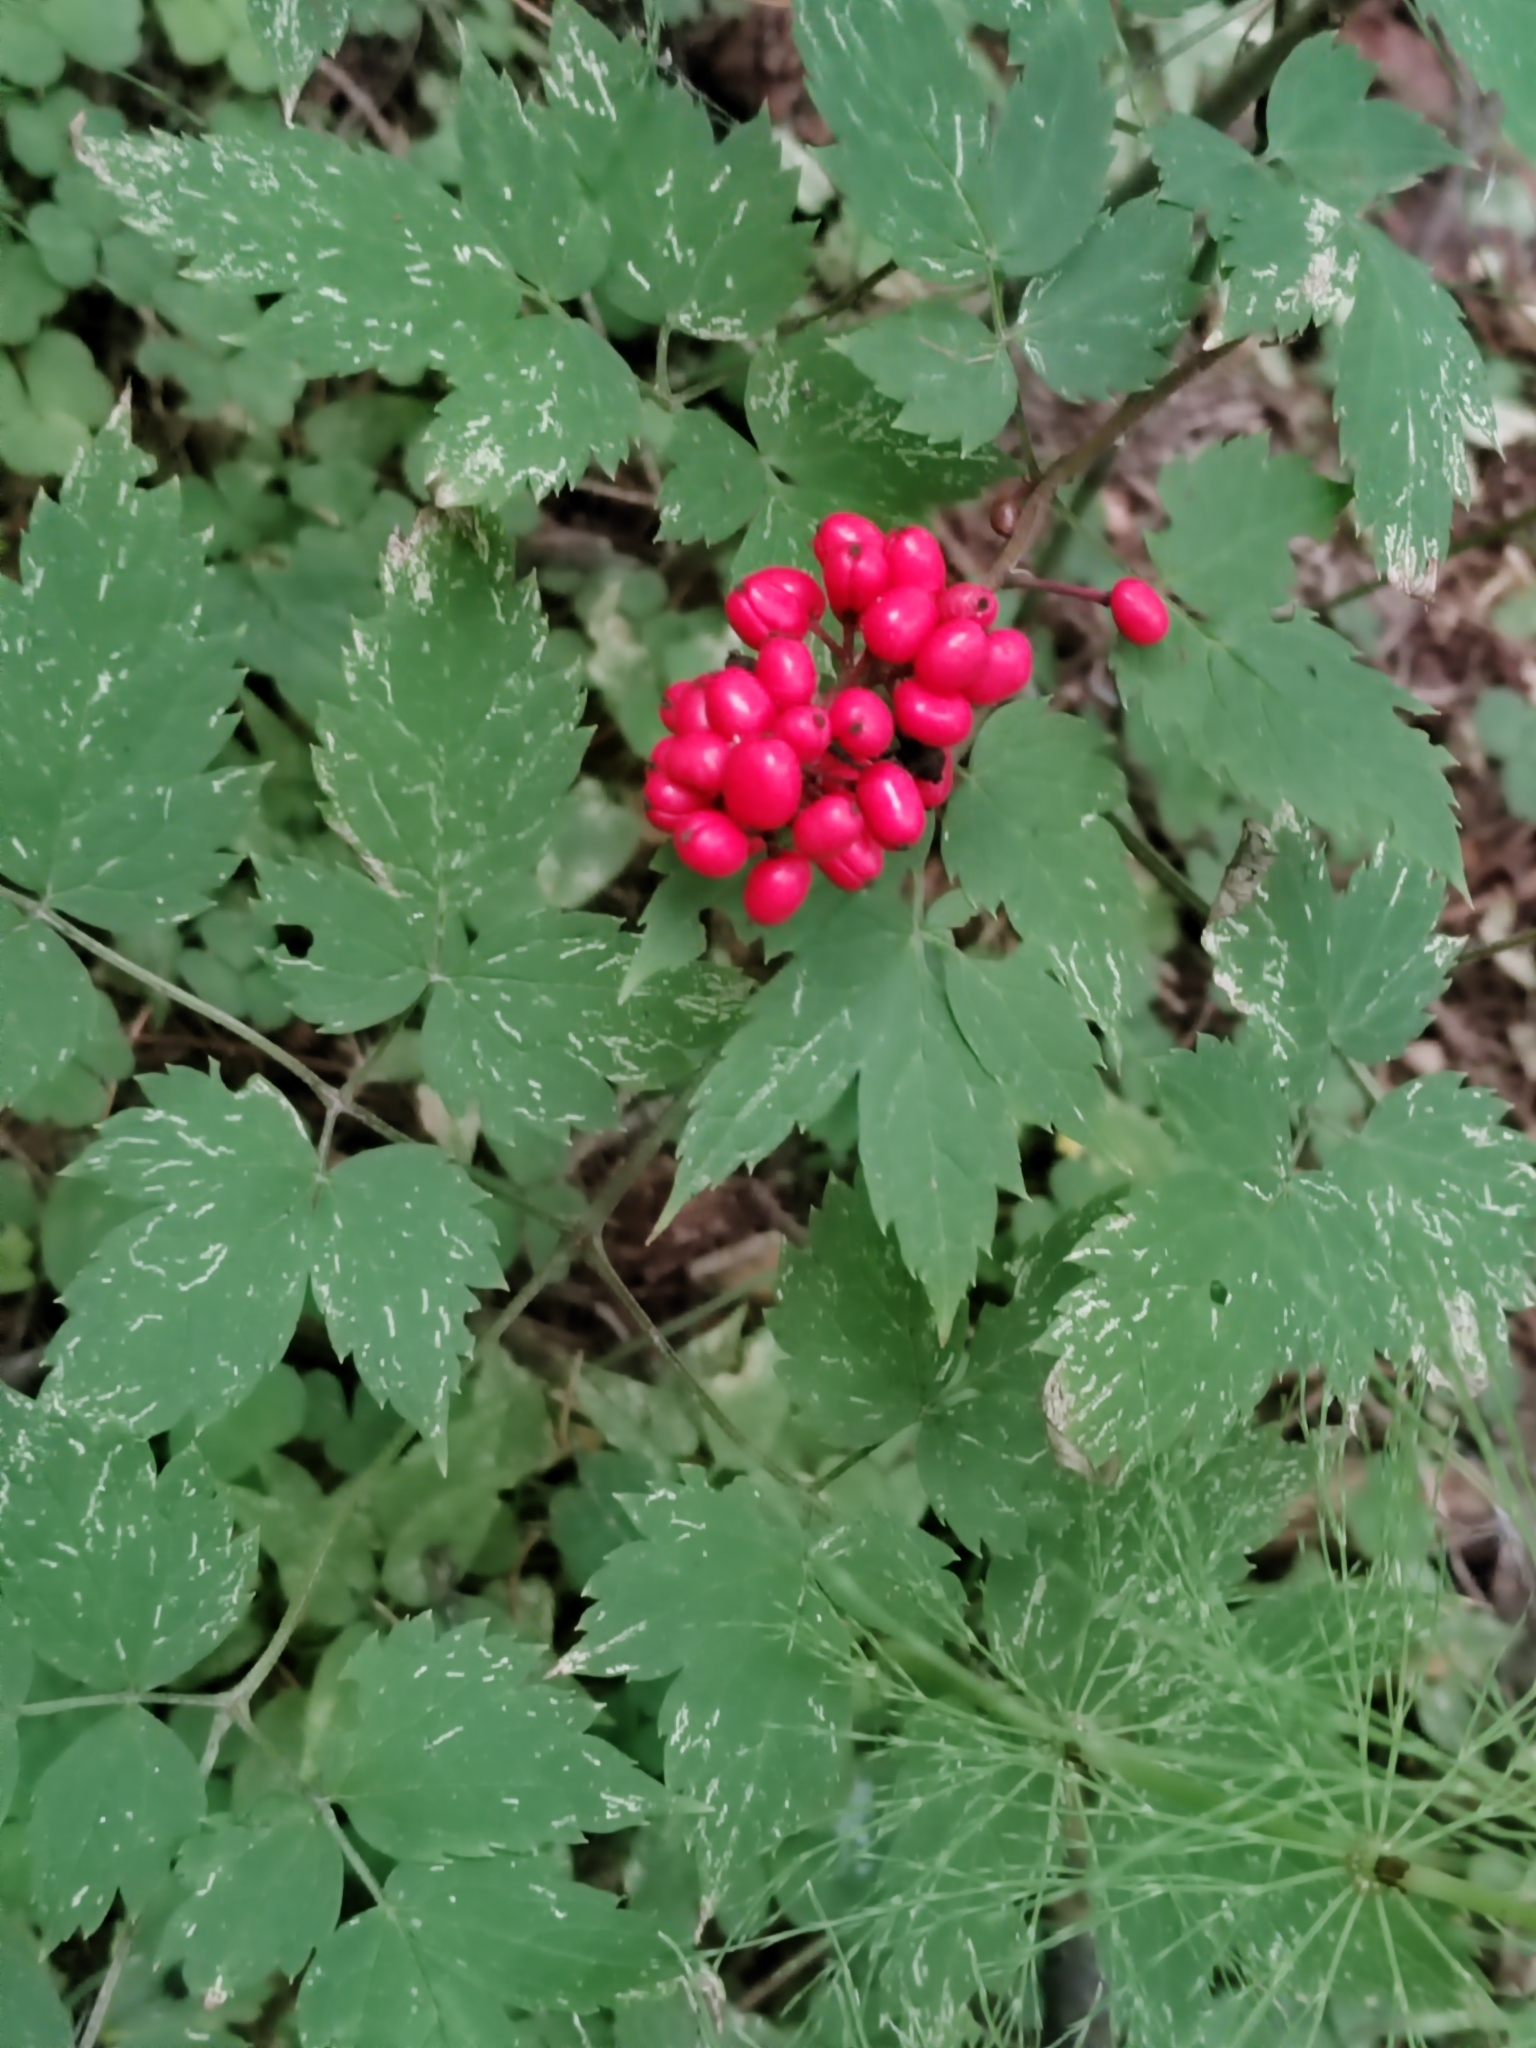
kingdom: Plantae
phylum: Tracheophyta
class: Magnoliopsida
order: Ranunculales
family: Ranunculaceae
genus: Actaea
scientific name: Actaea erythrocarpa
